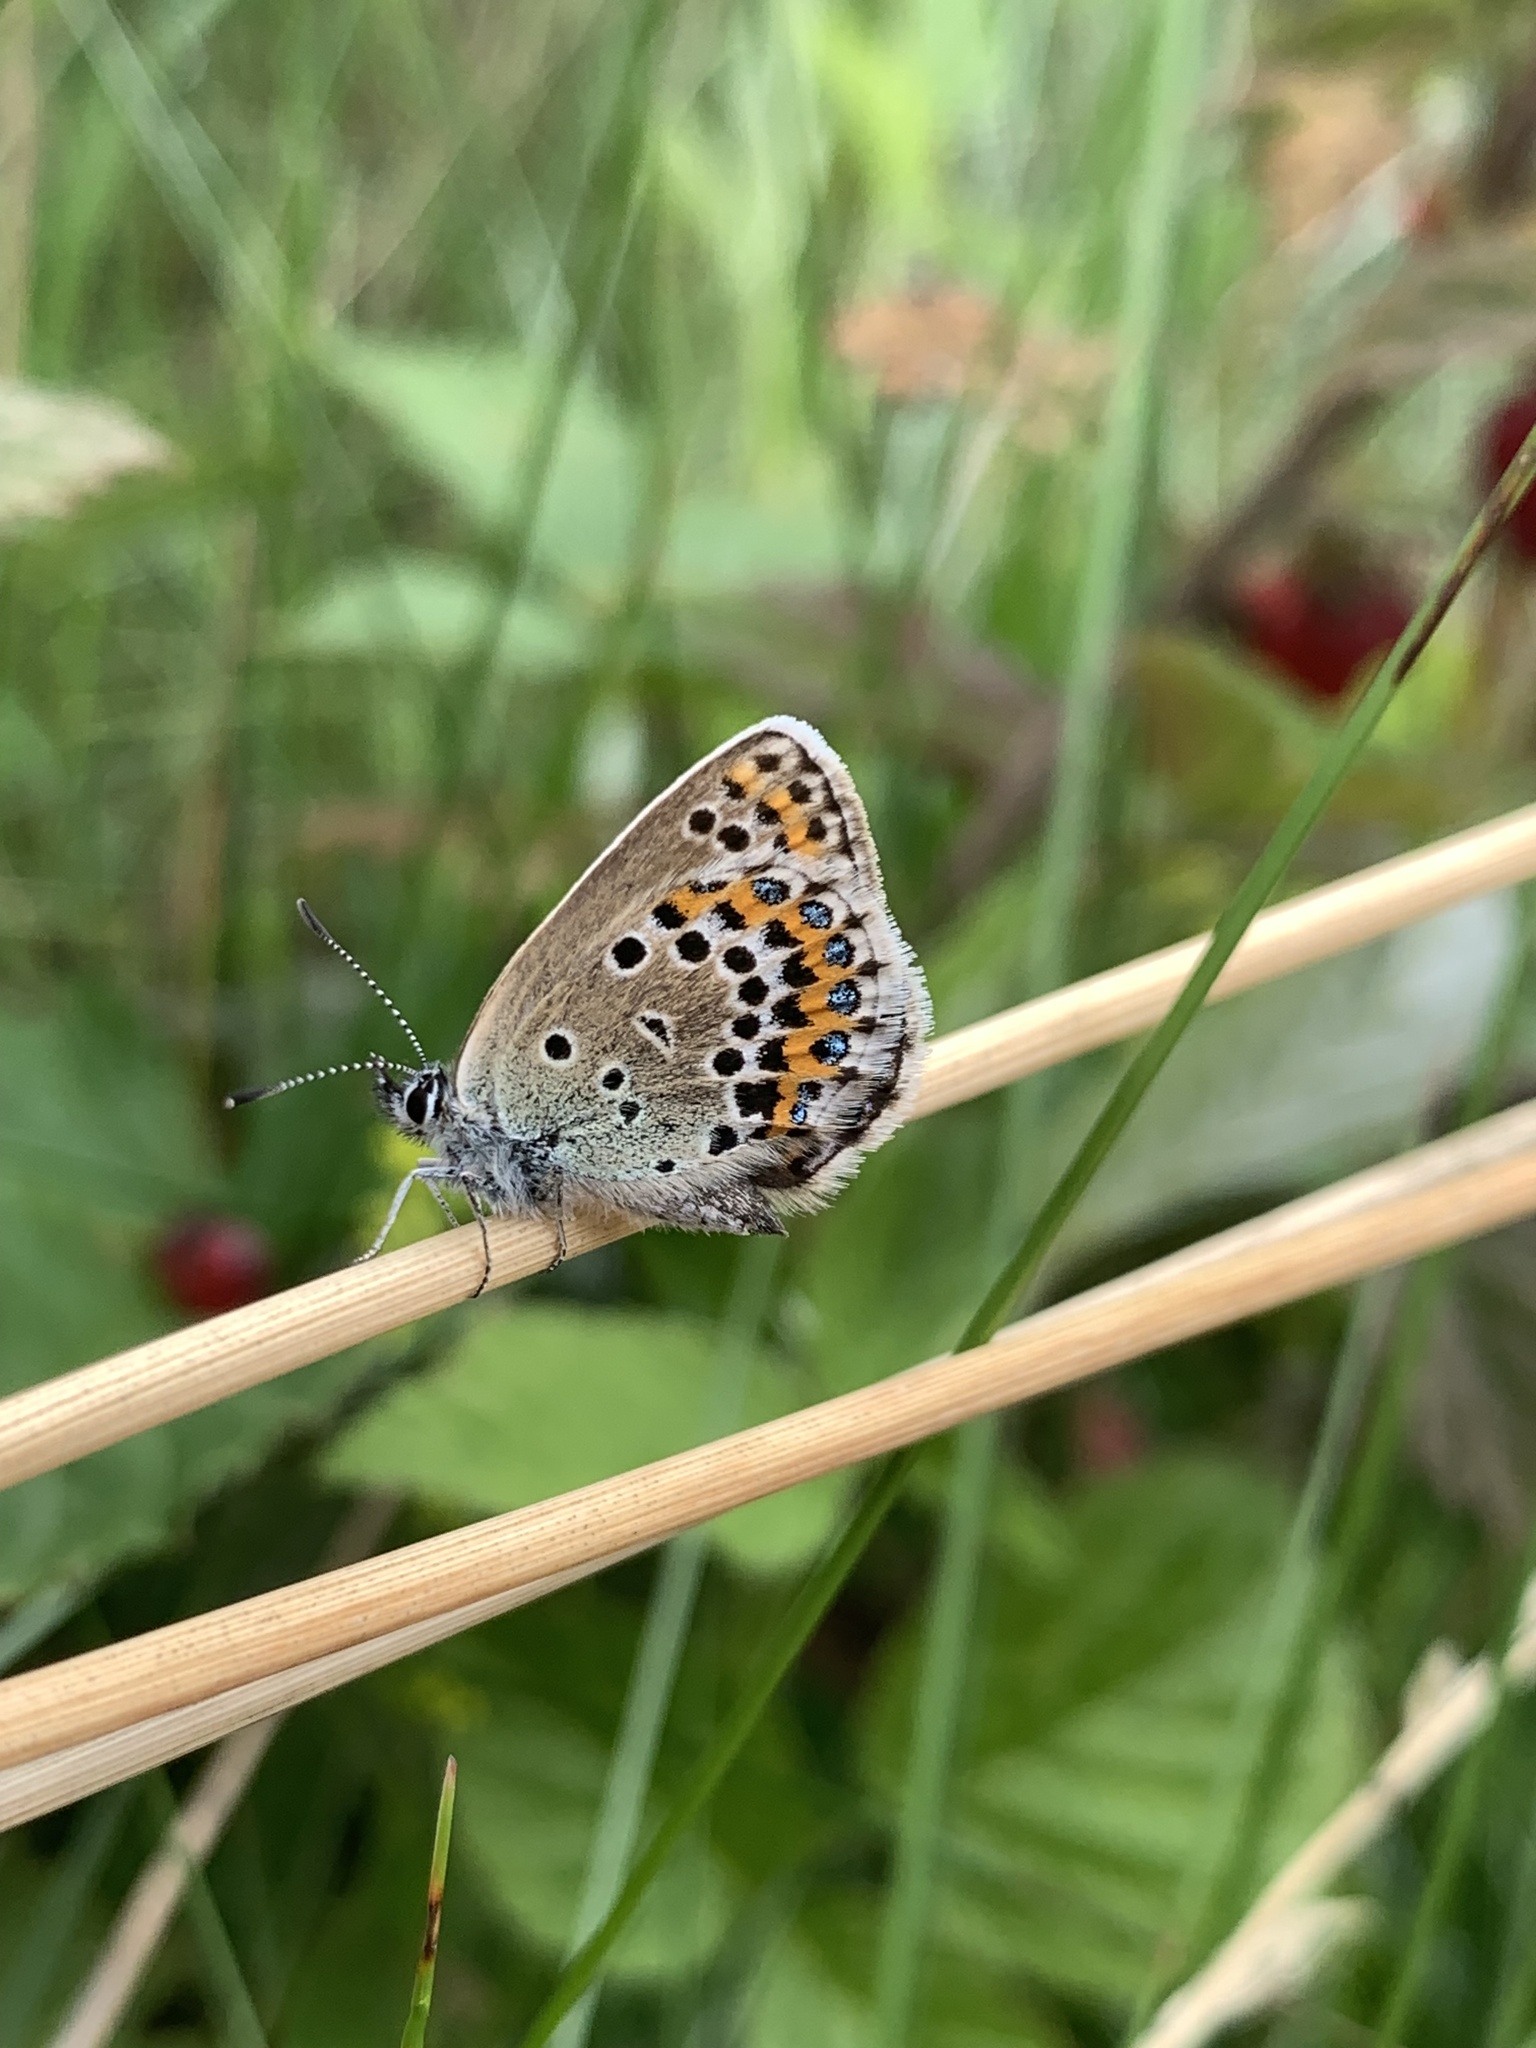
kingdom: Animalia
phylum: Arthropoda
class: Insecta
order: Lepidoptera
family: Lycaenidae
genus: Lycaeides
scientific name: Lycaeides idas
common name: Northern blue
